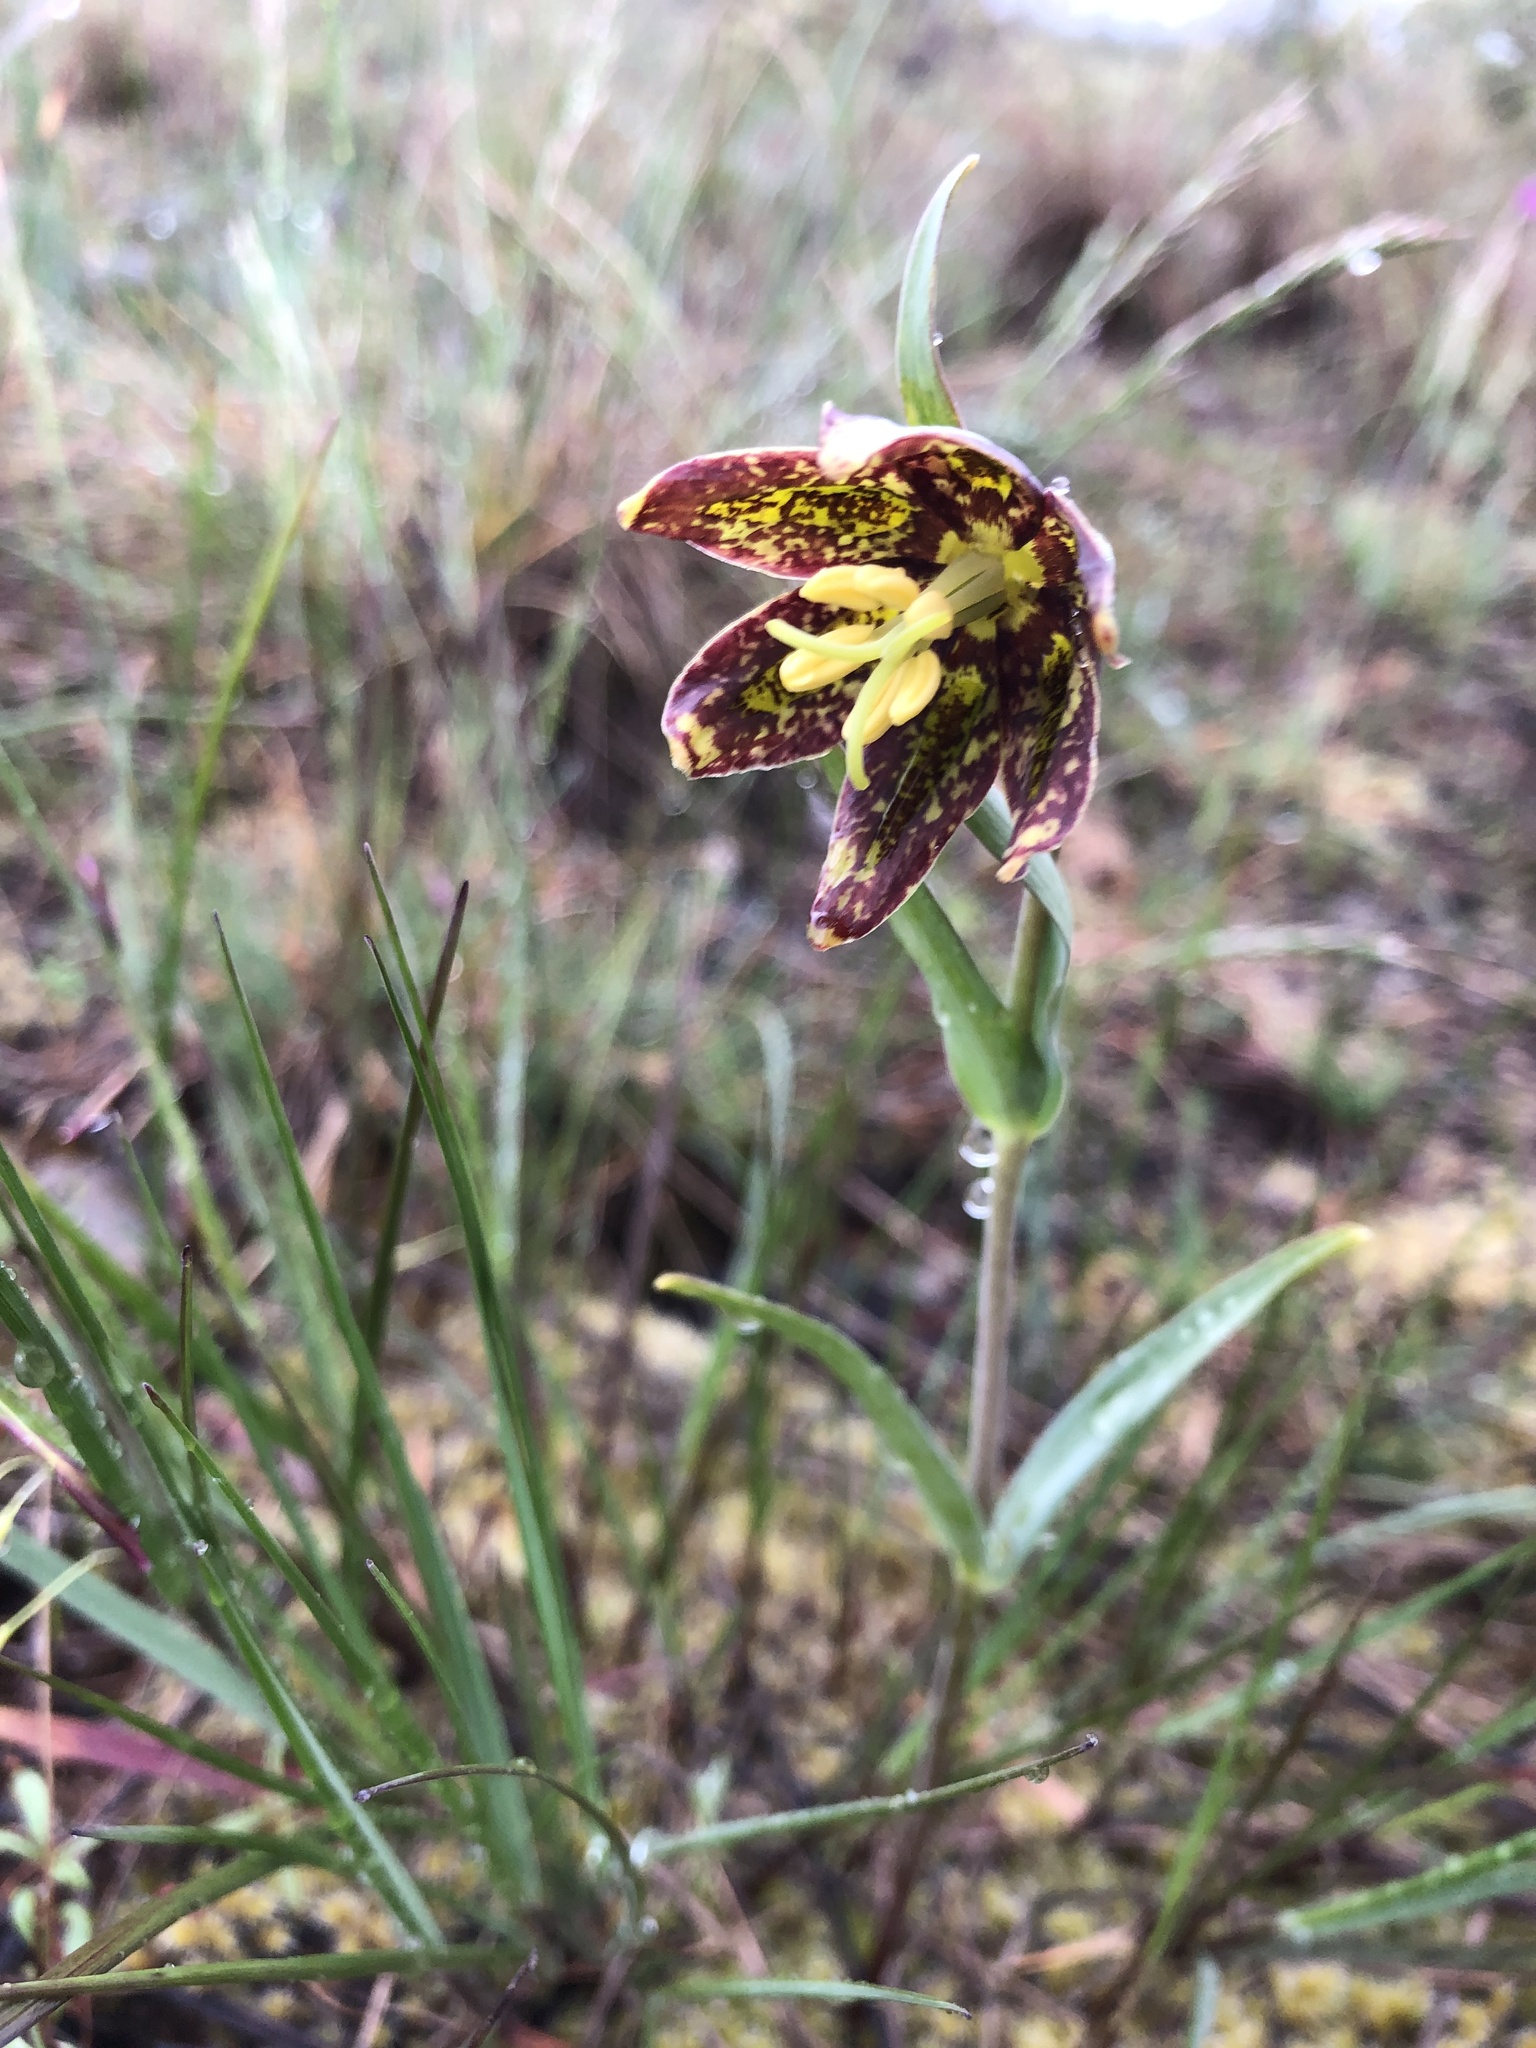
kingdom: Plantae
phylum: Tracheophyta
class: Liliopsida
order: Liliales
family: Liliaceae
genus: Fritillaria
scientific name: Fritillaria affinis
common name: Ojai fritillary
